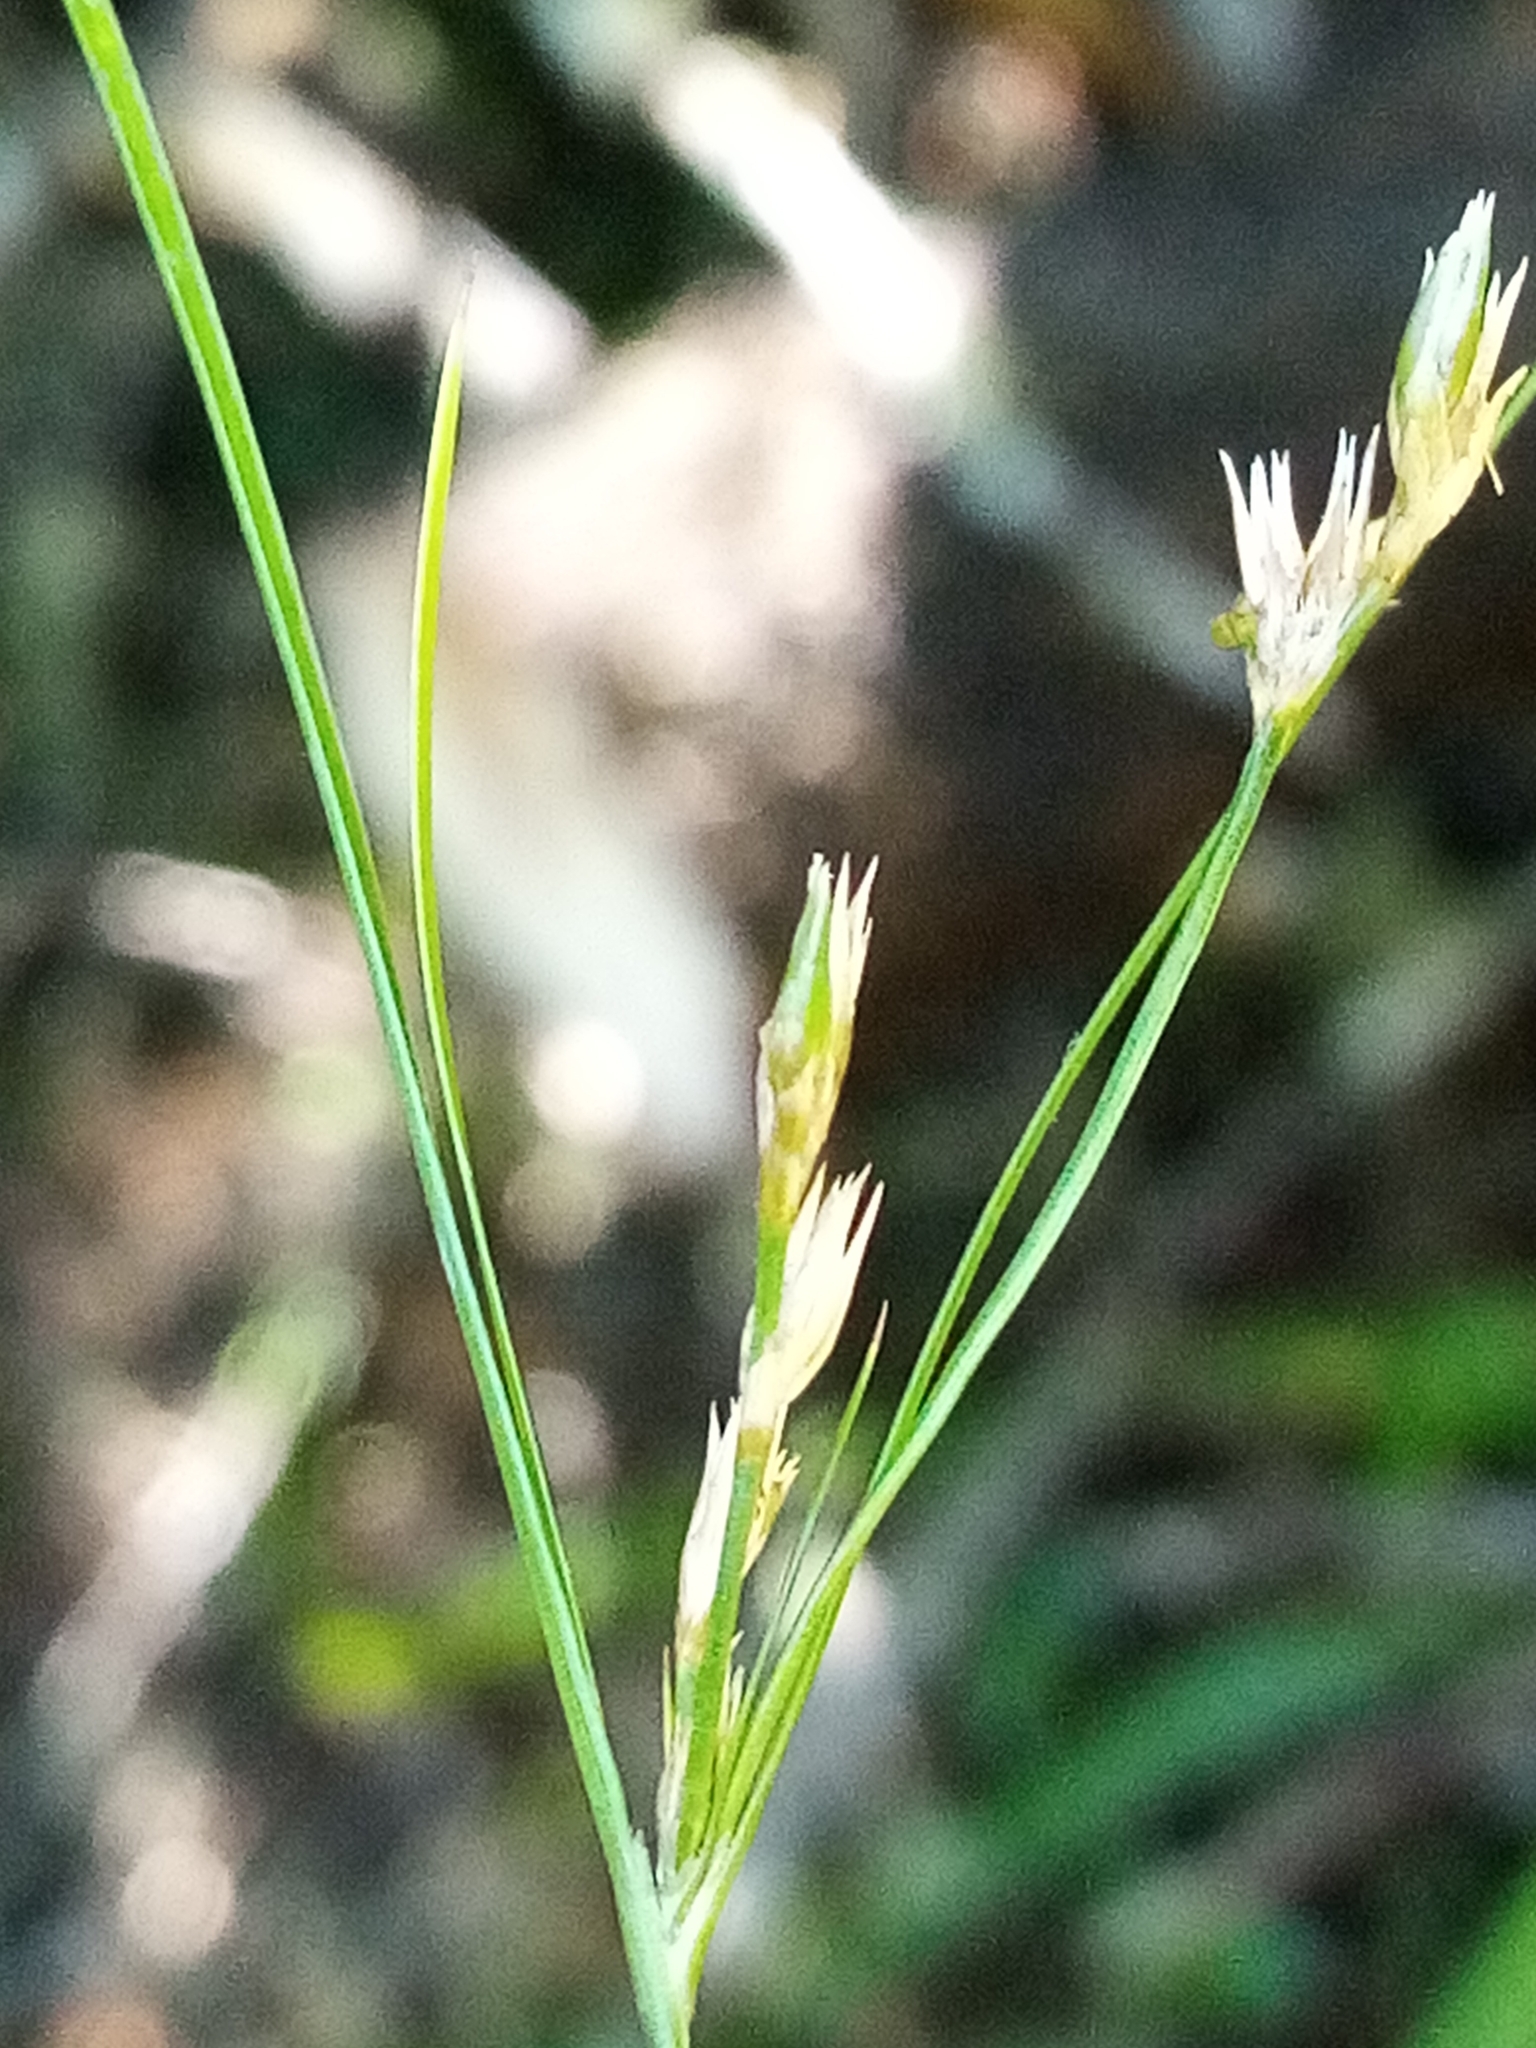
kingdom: Plantae
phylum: Tracheophyta
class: Liliopsida
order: Poales
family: Juncaceae
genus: Juncus
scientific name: Juncus tenuis
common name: Slender rush
